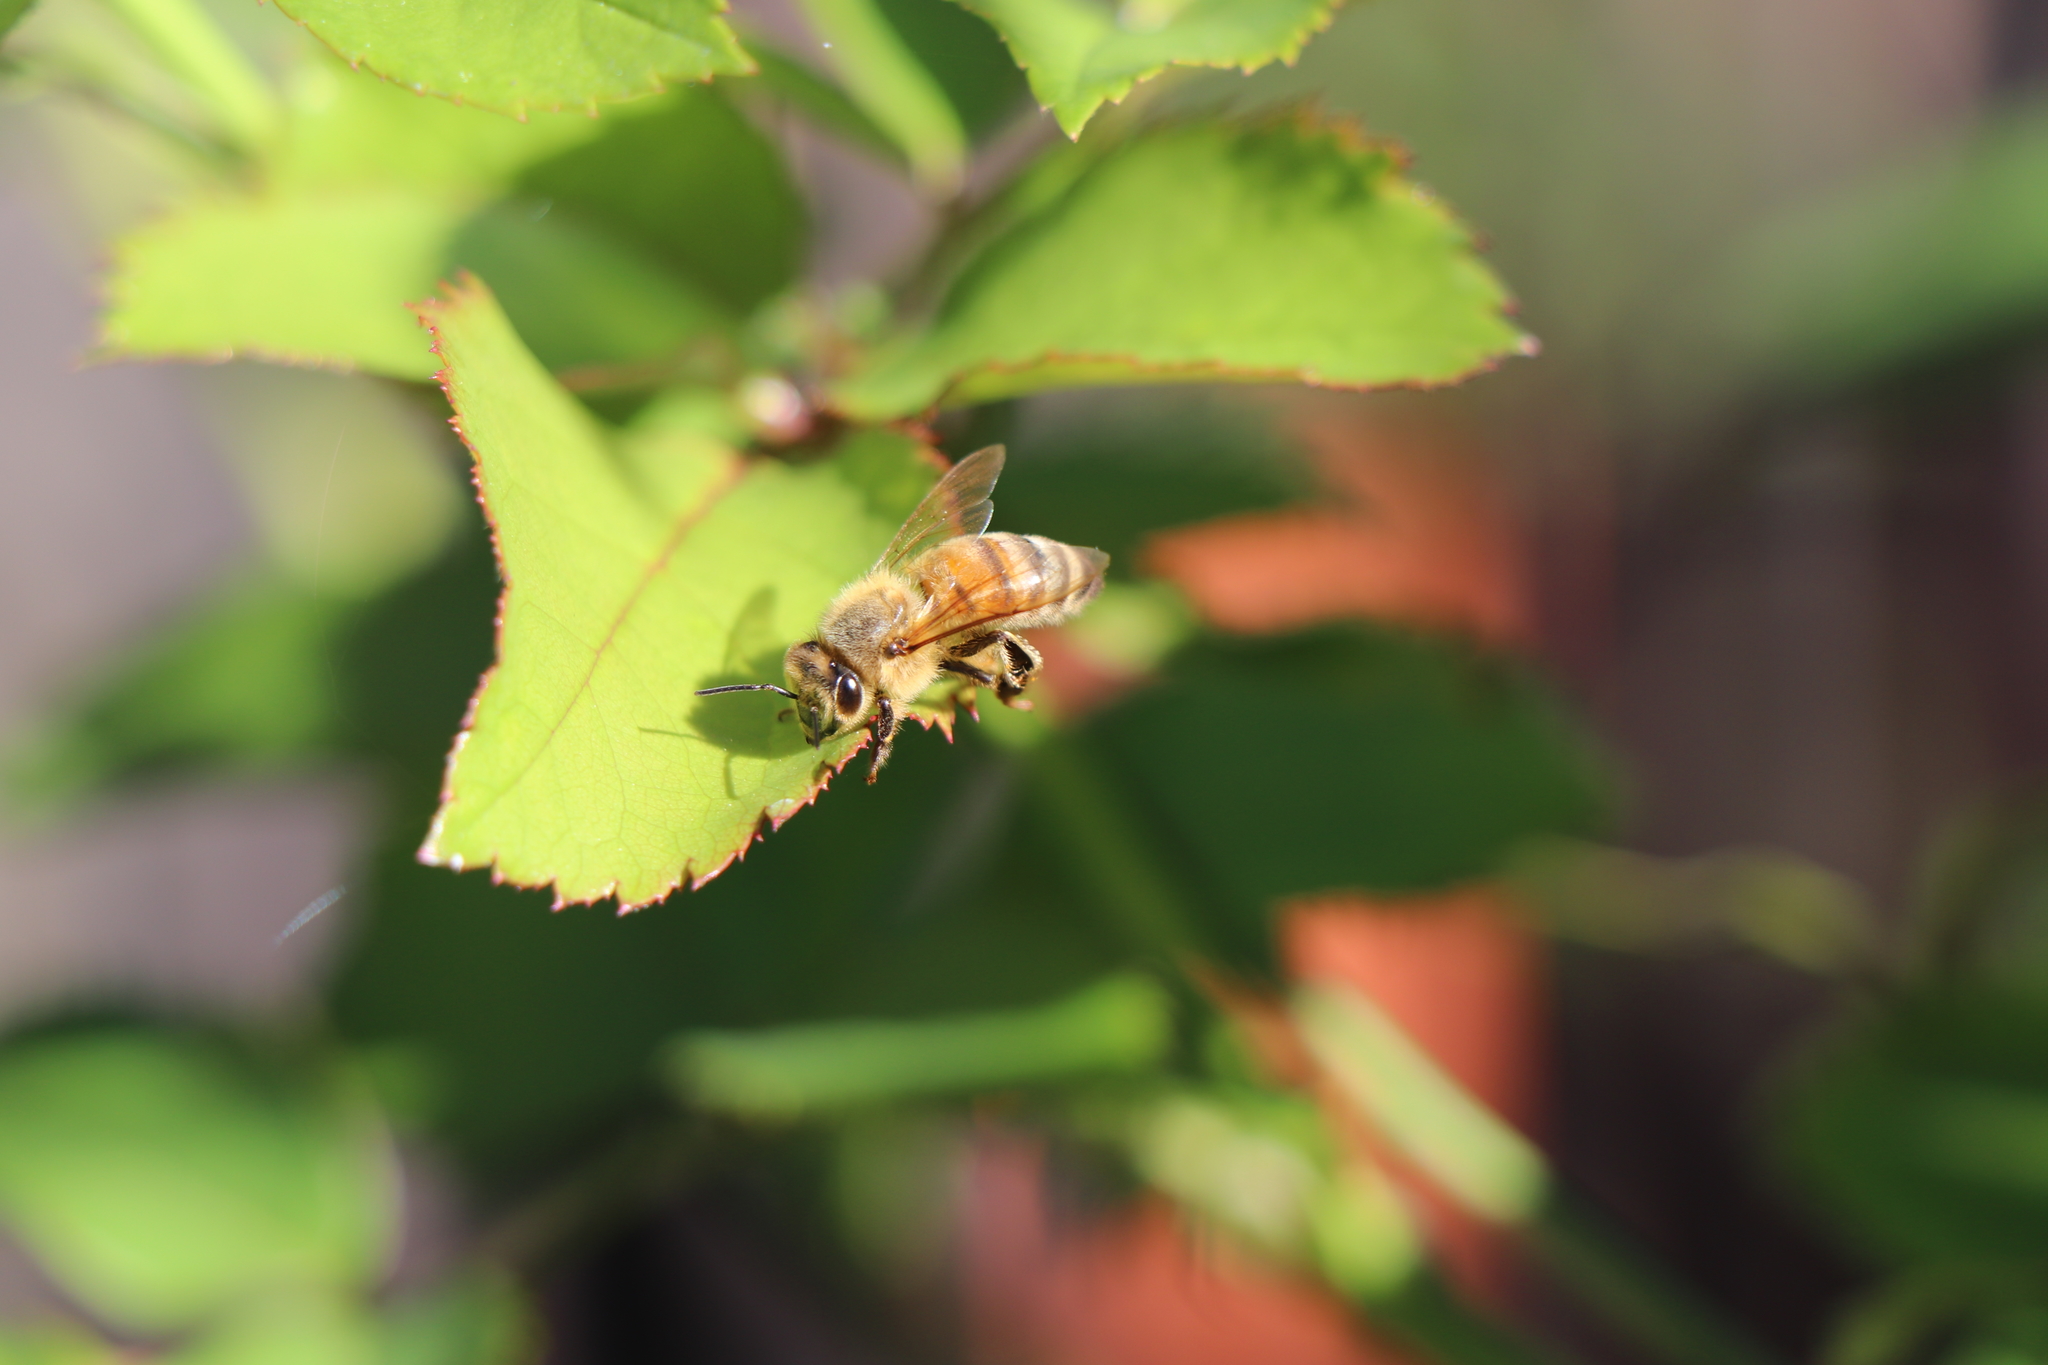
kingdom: Animalia
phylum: Arthropoda
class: Insecta
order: Hymenoptera
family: Apidae
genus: Apis
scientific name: Apis mellifera
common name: Honey bee
